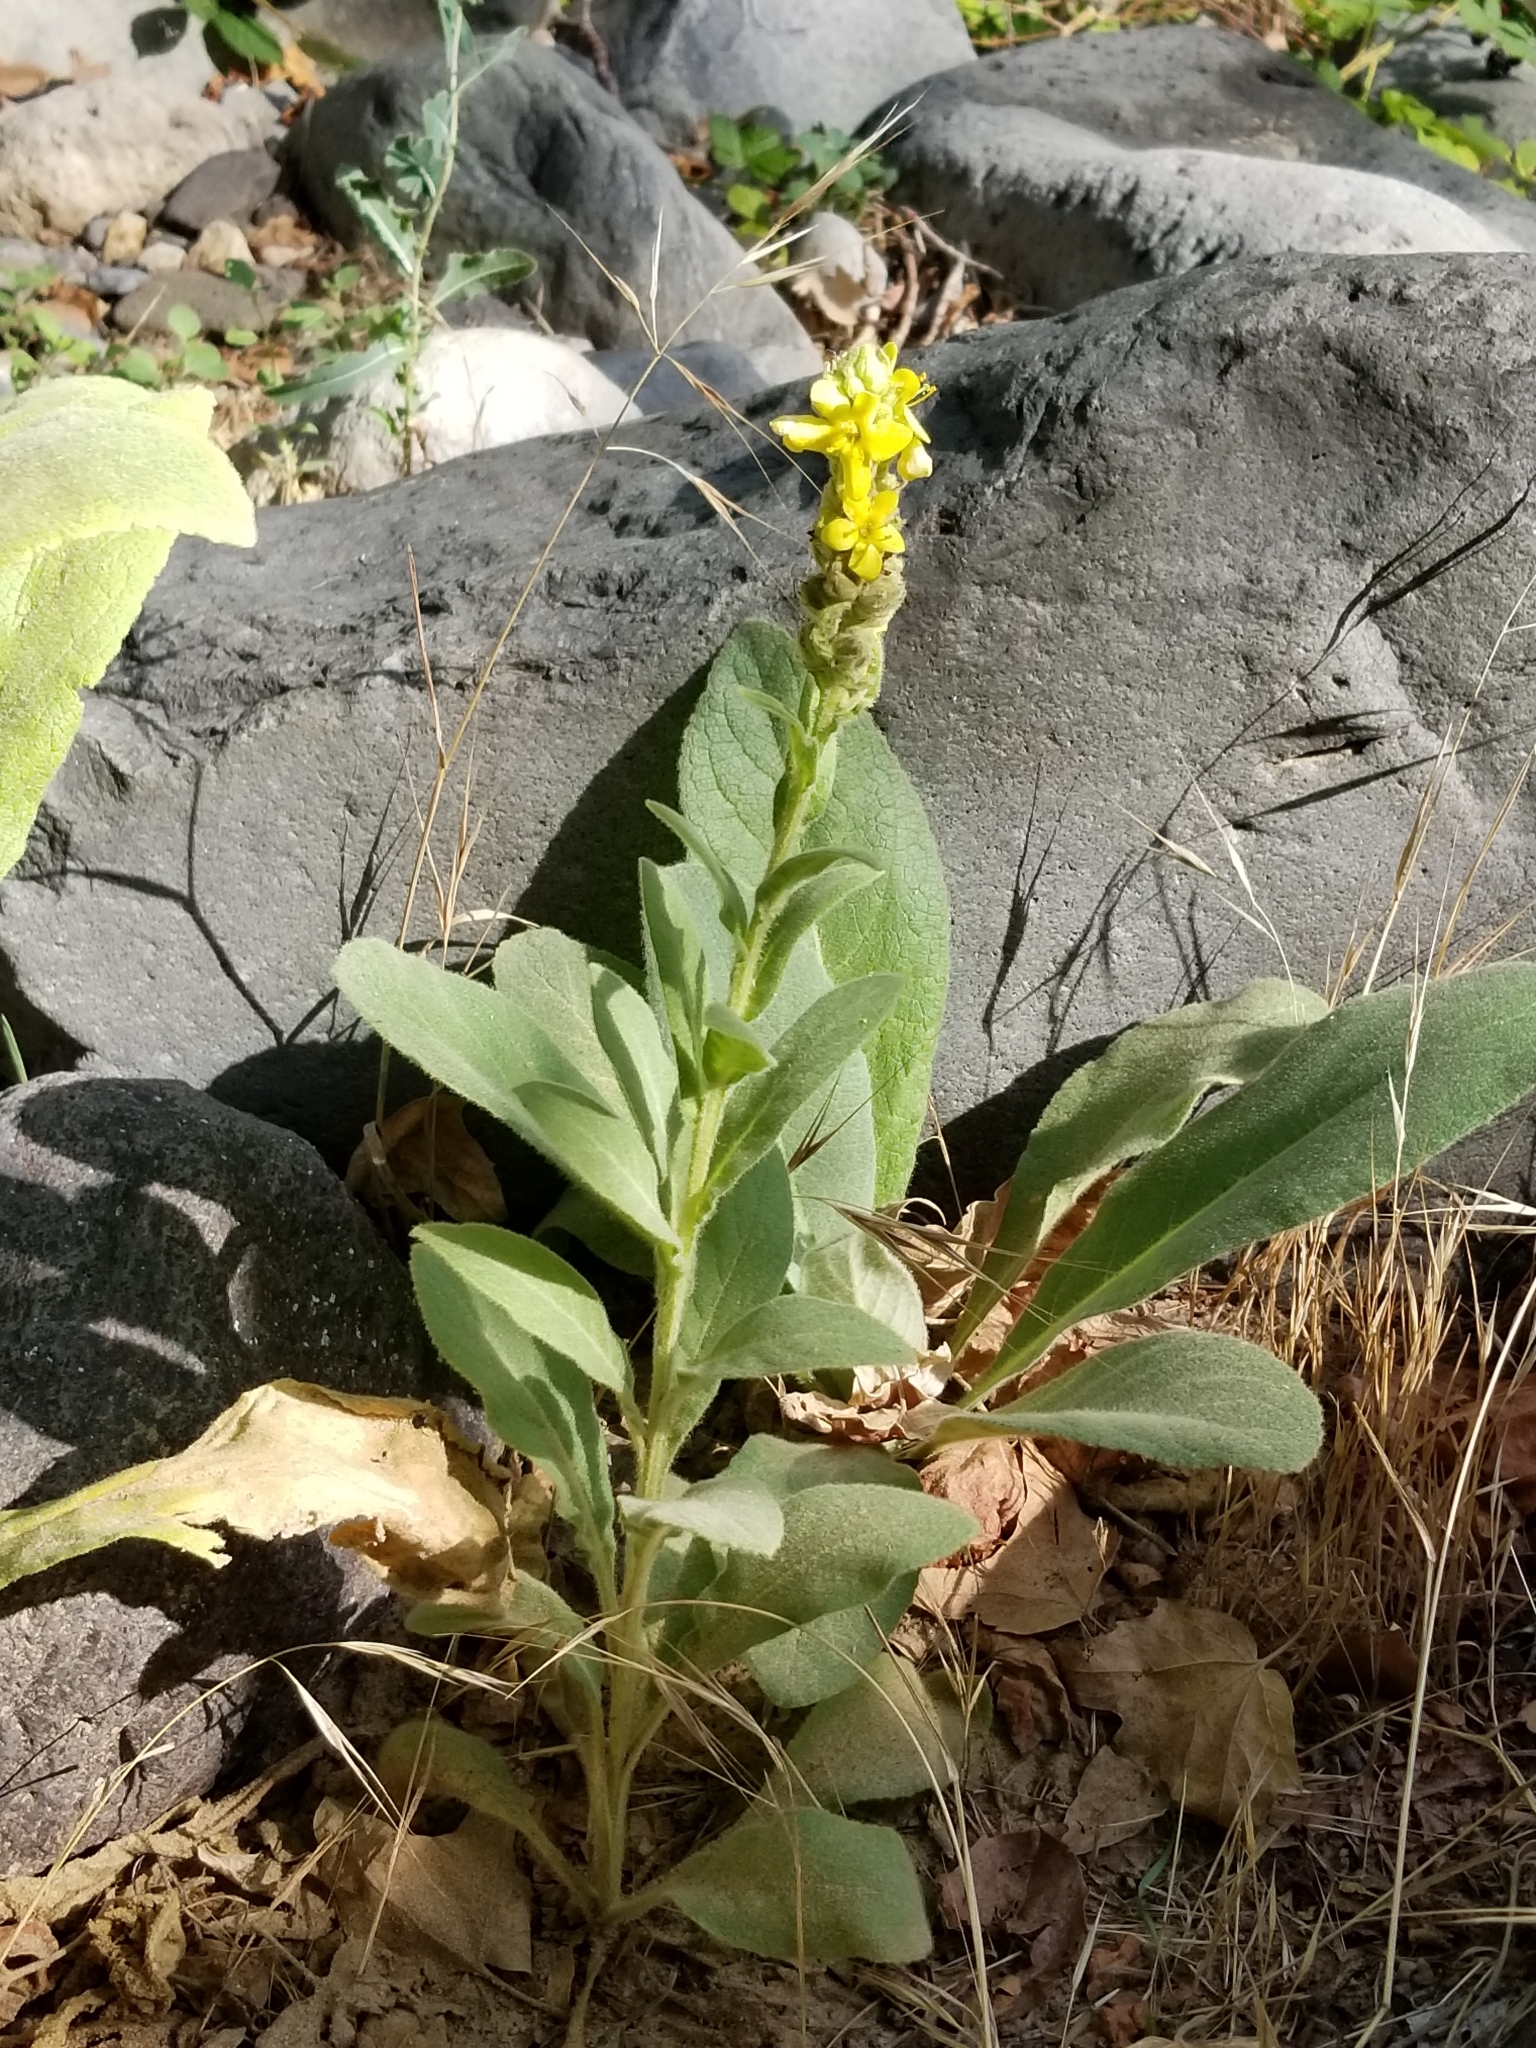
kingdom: Plantae
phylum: Tracheophyta
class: Magnoliopsida
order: Lamiales
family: Scrophulariaceae
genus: Verbascum
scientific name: Verbascum thapsus
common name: Common mullein
